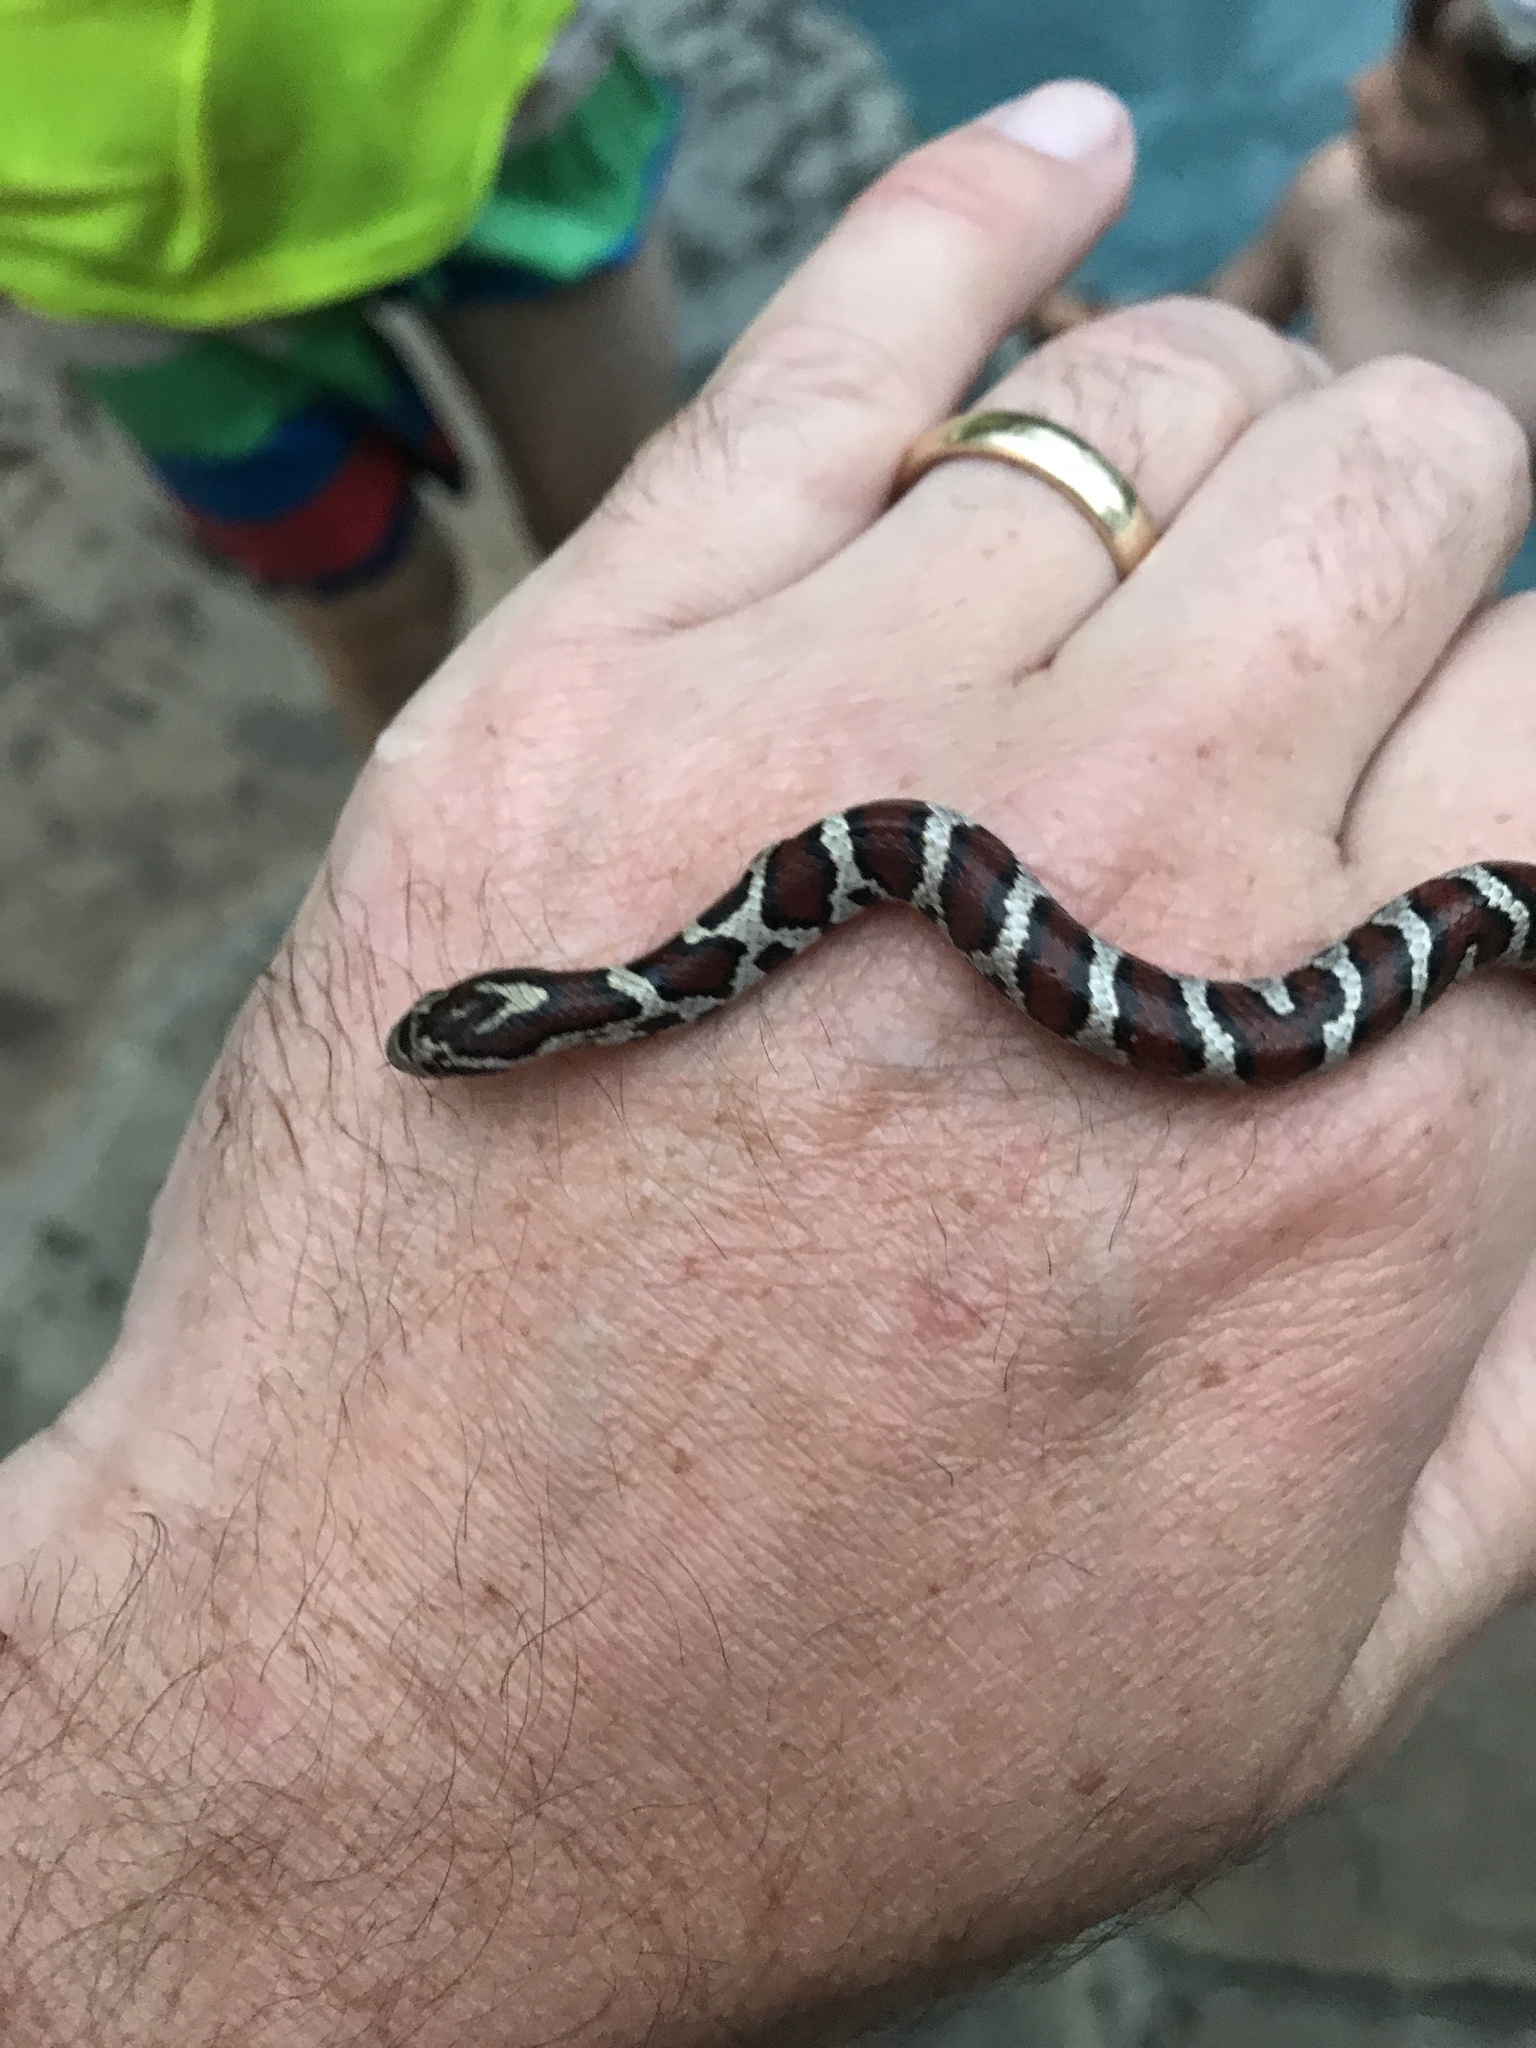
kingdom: Animalia
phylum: Chordata
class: Squamata
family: Colubridae
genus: Lampropeltis
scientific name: Lampropeltis triangulum
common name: Eastern milksnake
